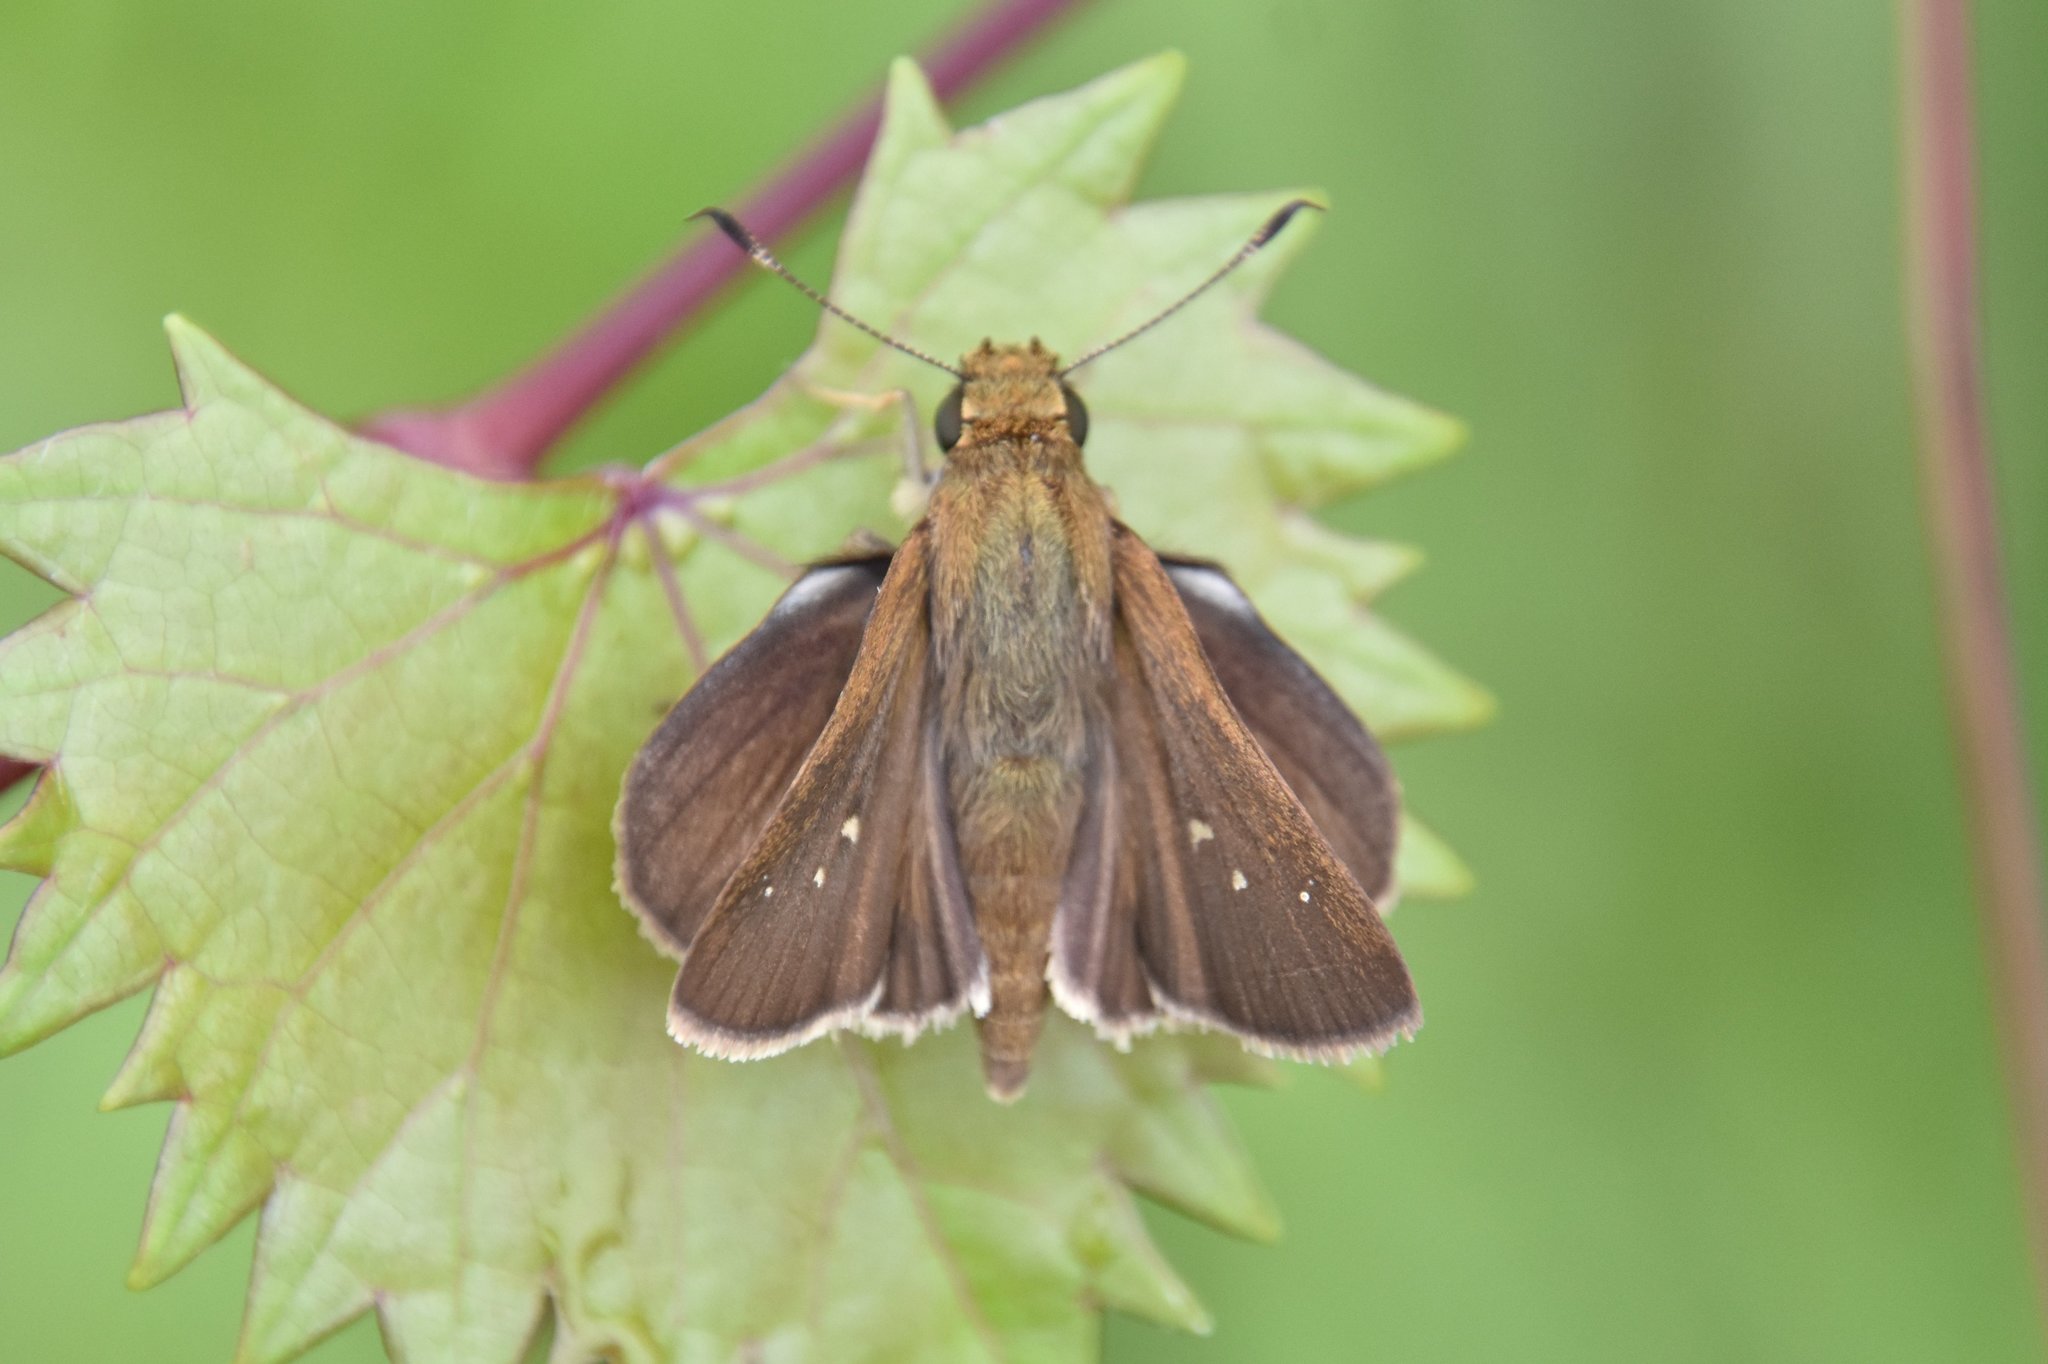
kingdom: Animalia
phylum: Arthropoda
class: Insecta
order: Lepidoptera
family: Hesperiidae
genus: Oligoria
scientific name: Oligoria maculata
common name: Twin-spot skipper
